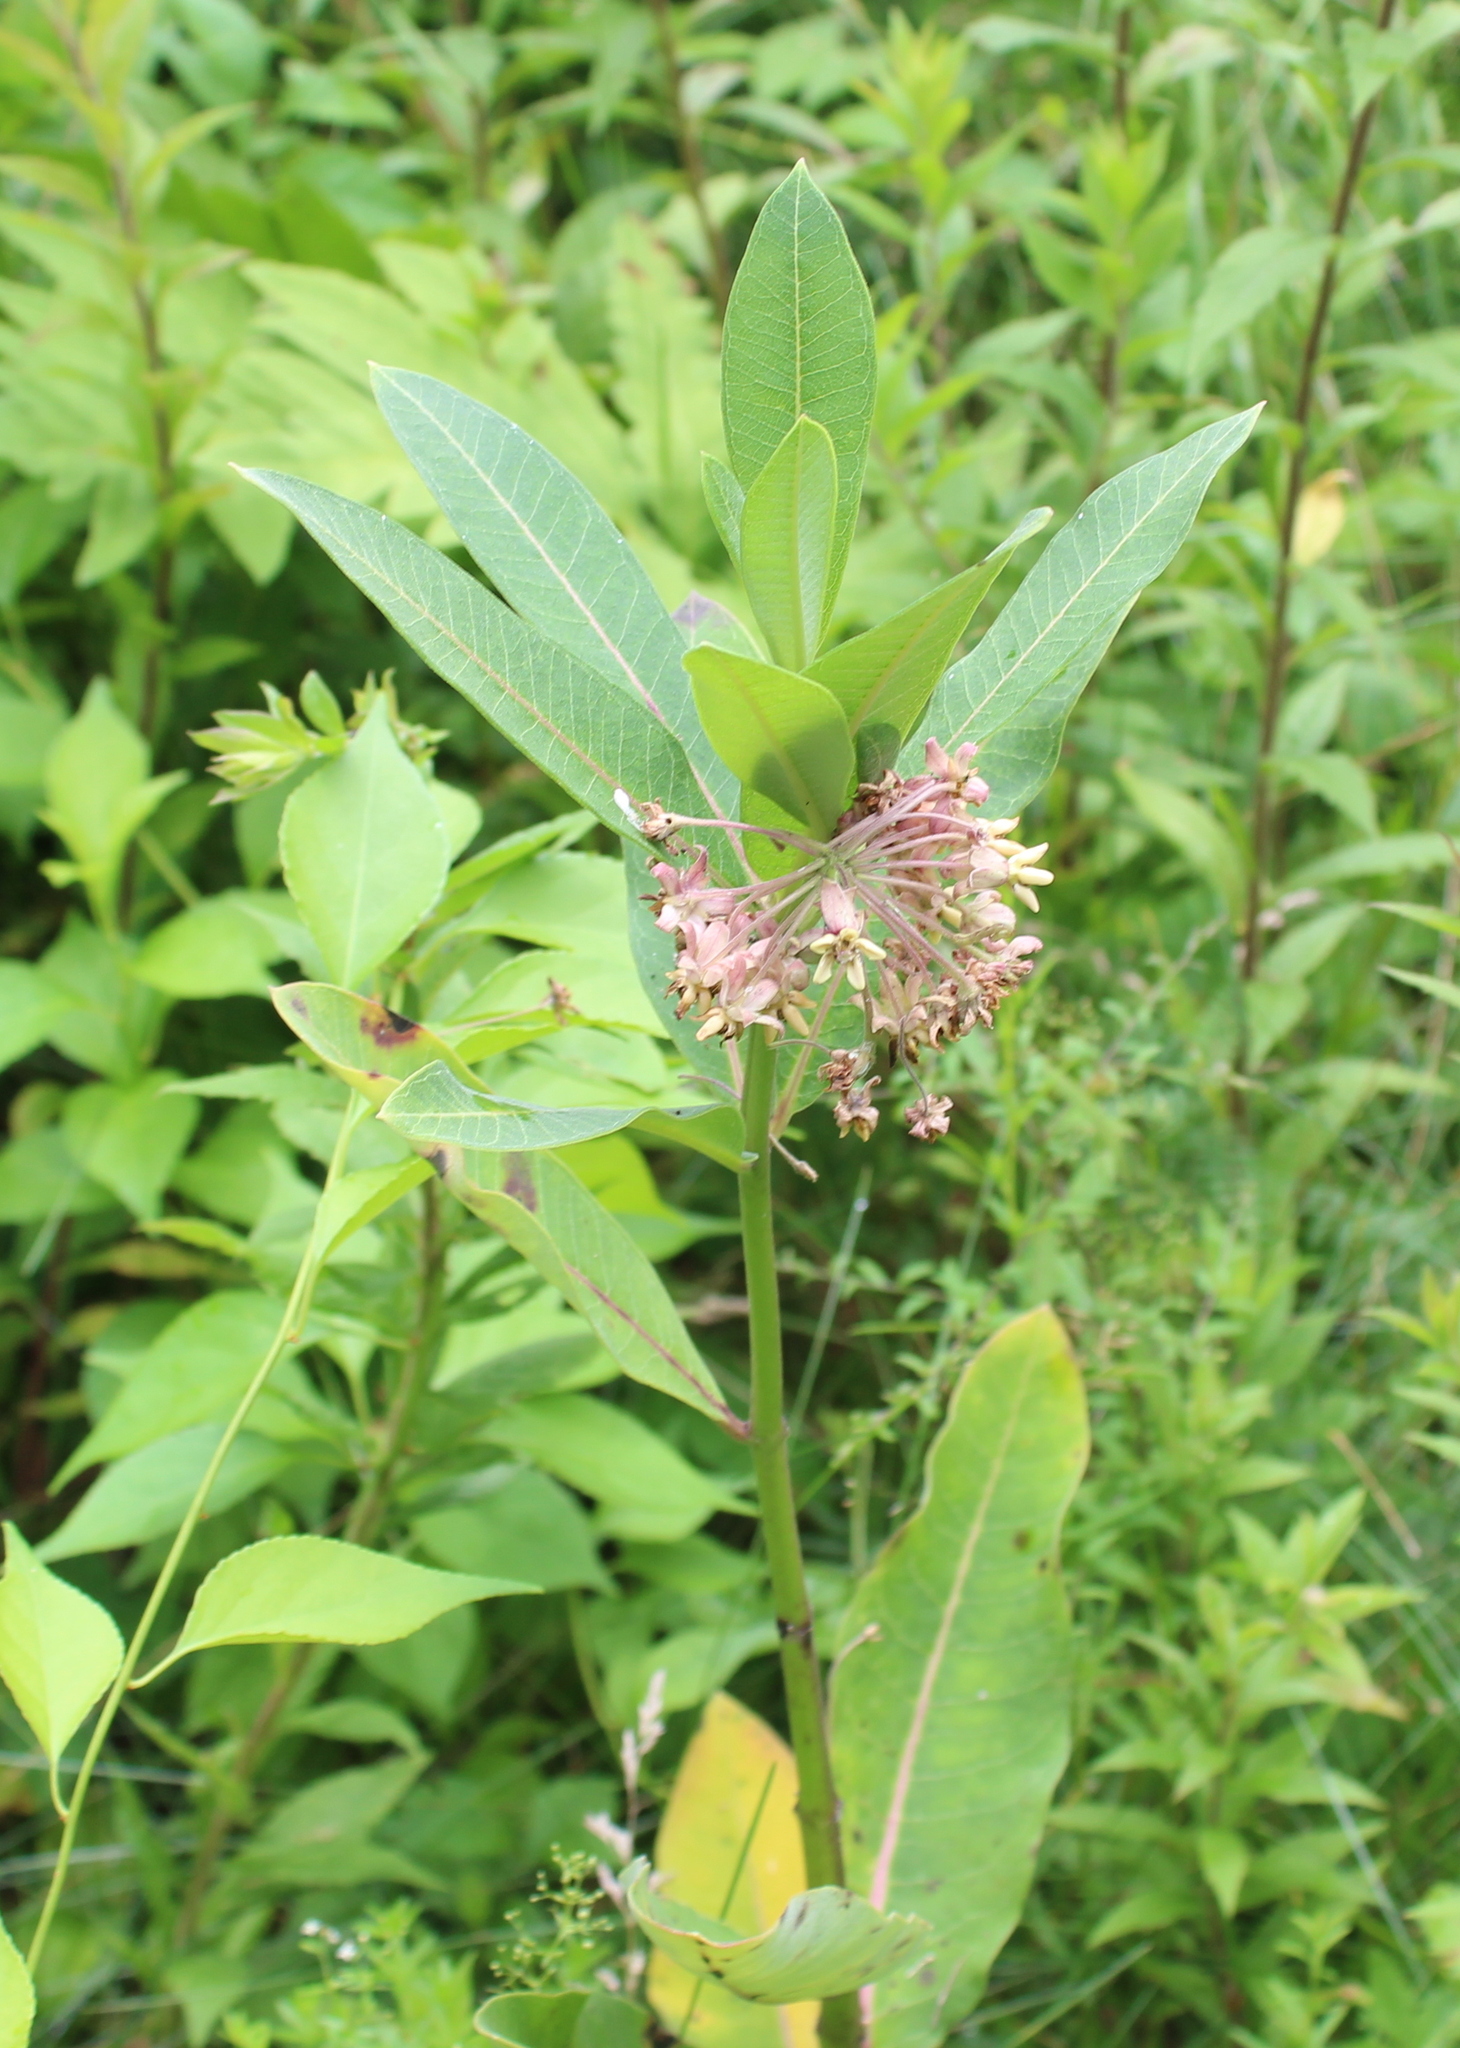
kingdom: Plantae
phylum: Tracheophyta
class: Magnoliopsida
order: Gentianales
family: Apocynaceae
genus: Asclepias
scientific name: Asclepias syriaca
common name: Common milkweed
